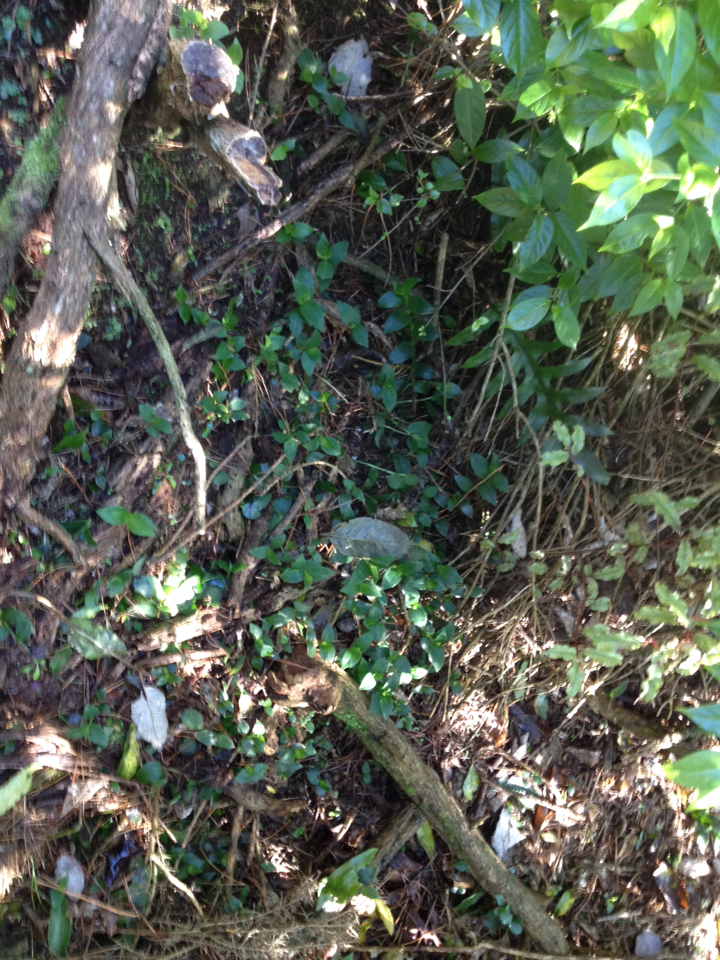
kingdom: Plantae
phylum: Tracheophyta
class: Liliopsida
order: Commelinales
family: Commelinaceae
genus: Tradescantia
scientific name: Tradescantia fluminensis
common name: Wandering-jew
